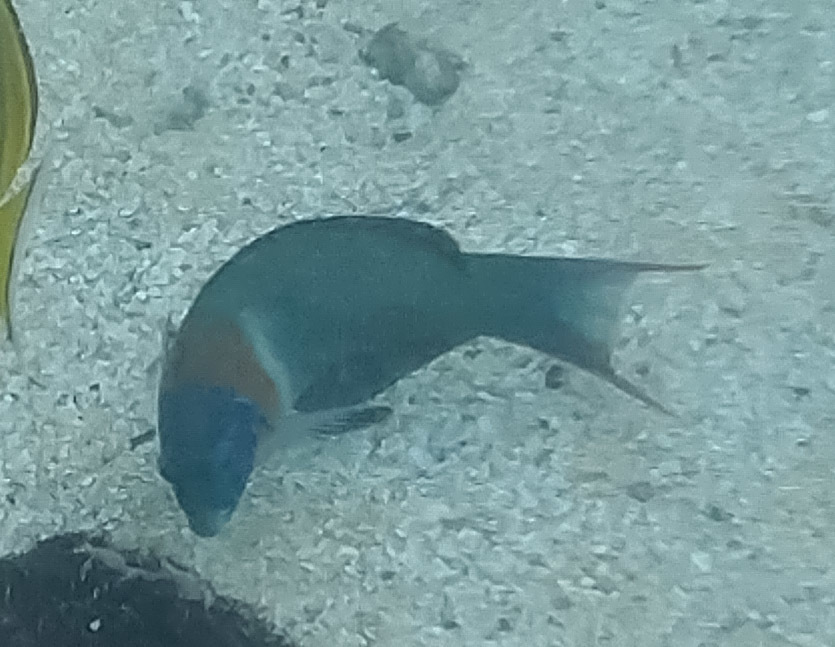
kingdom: Animalia
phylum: Chordata
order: Perciformes
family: Labridae
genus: Thalassoma
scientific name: Thalassoma duperrey
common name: Saddle wrasse
